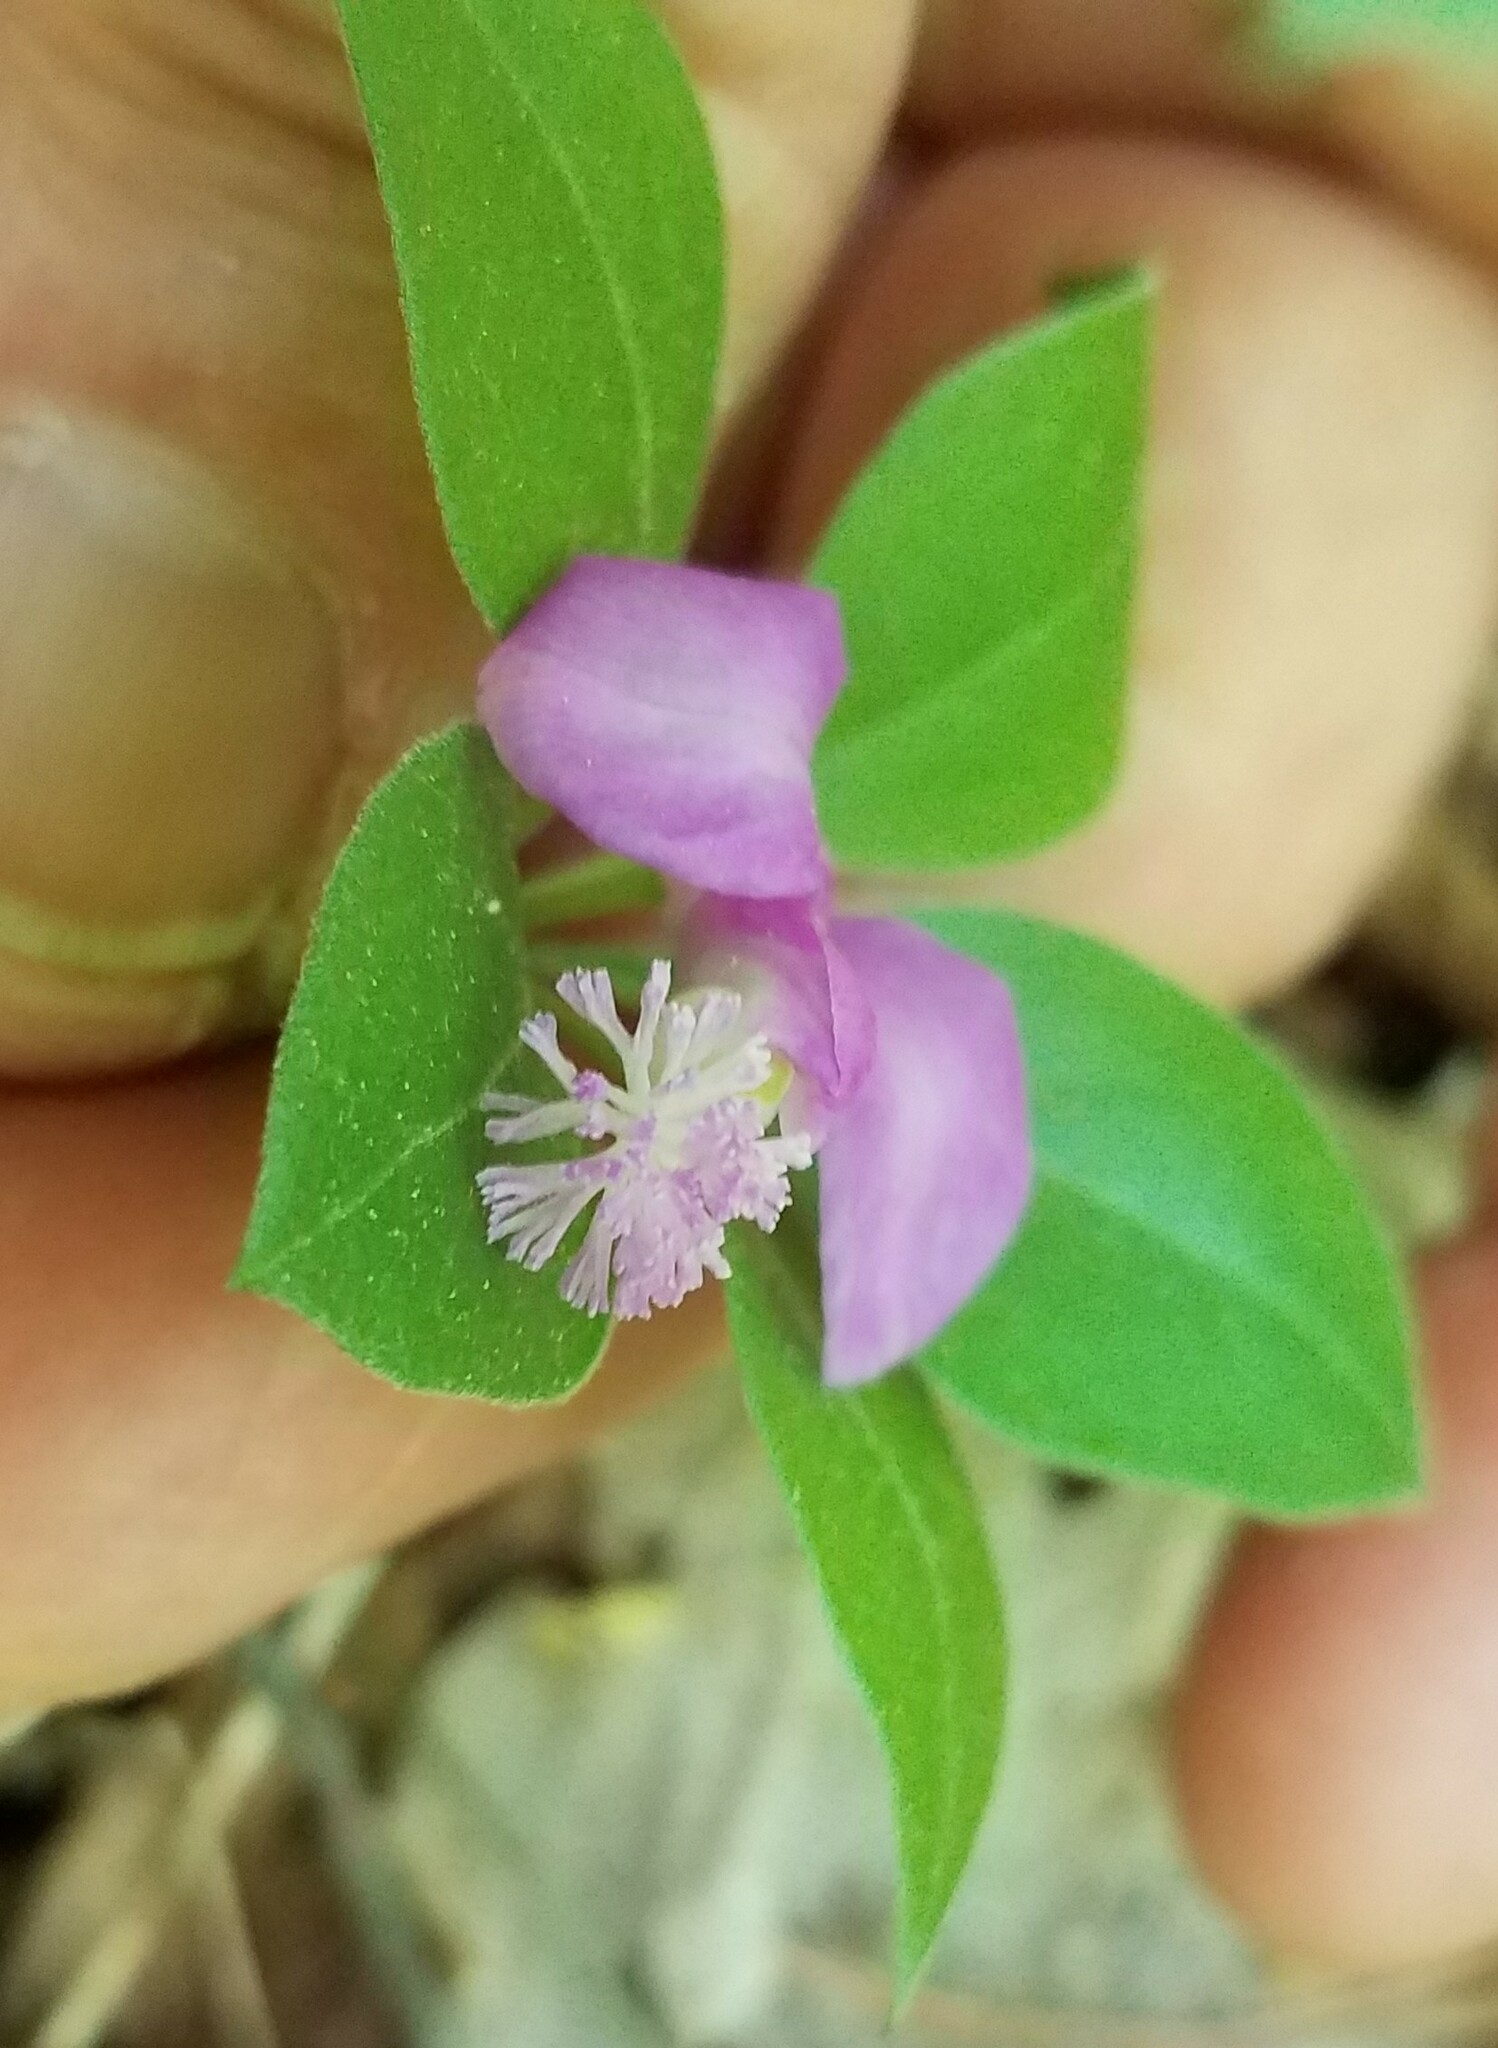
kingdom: Plantae
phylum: Tracheophyta
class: Magnoliopsida
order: Fabales
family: Polygalaceae
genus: Polygaloides
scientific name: Polygaloides paucifolia
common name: Bird-on-the-wing
